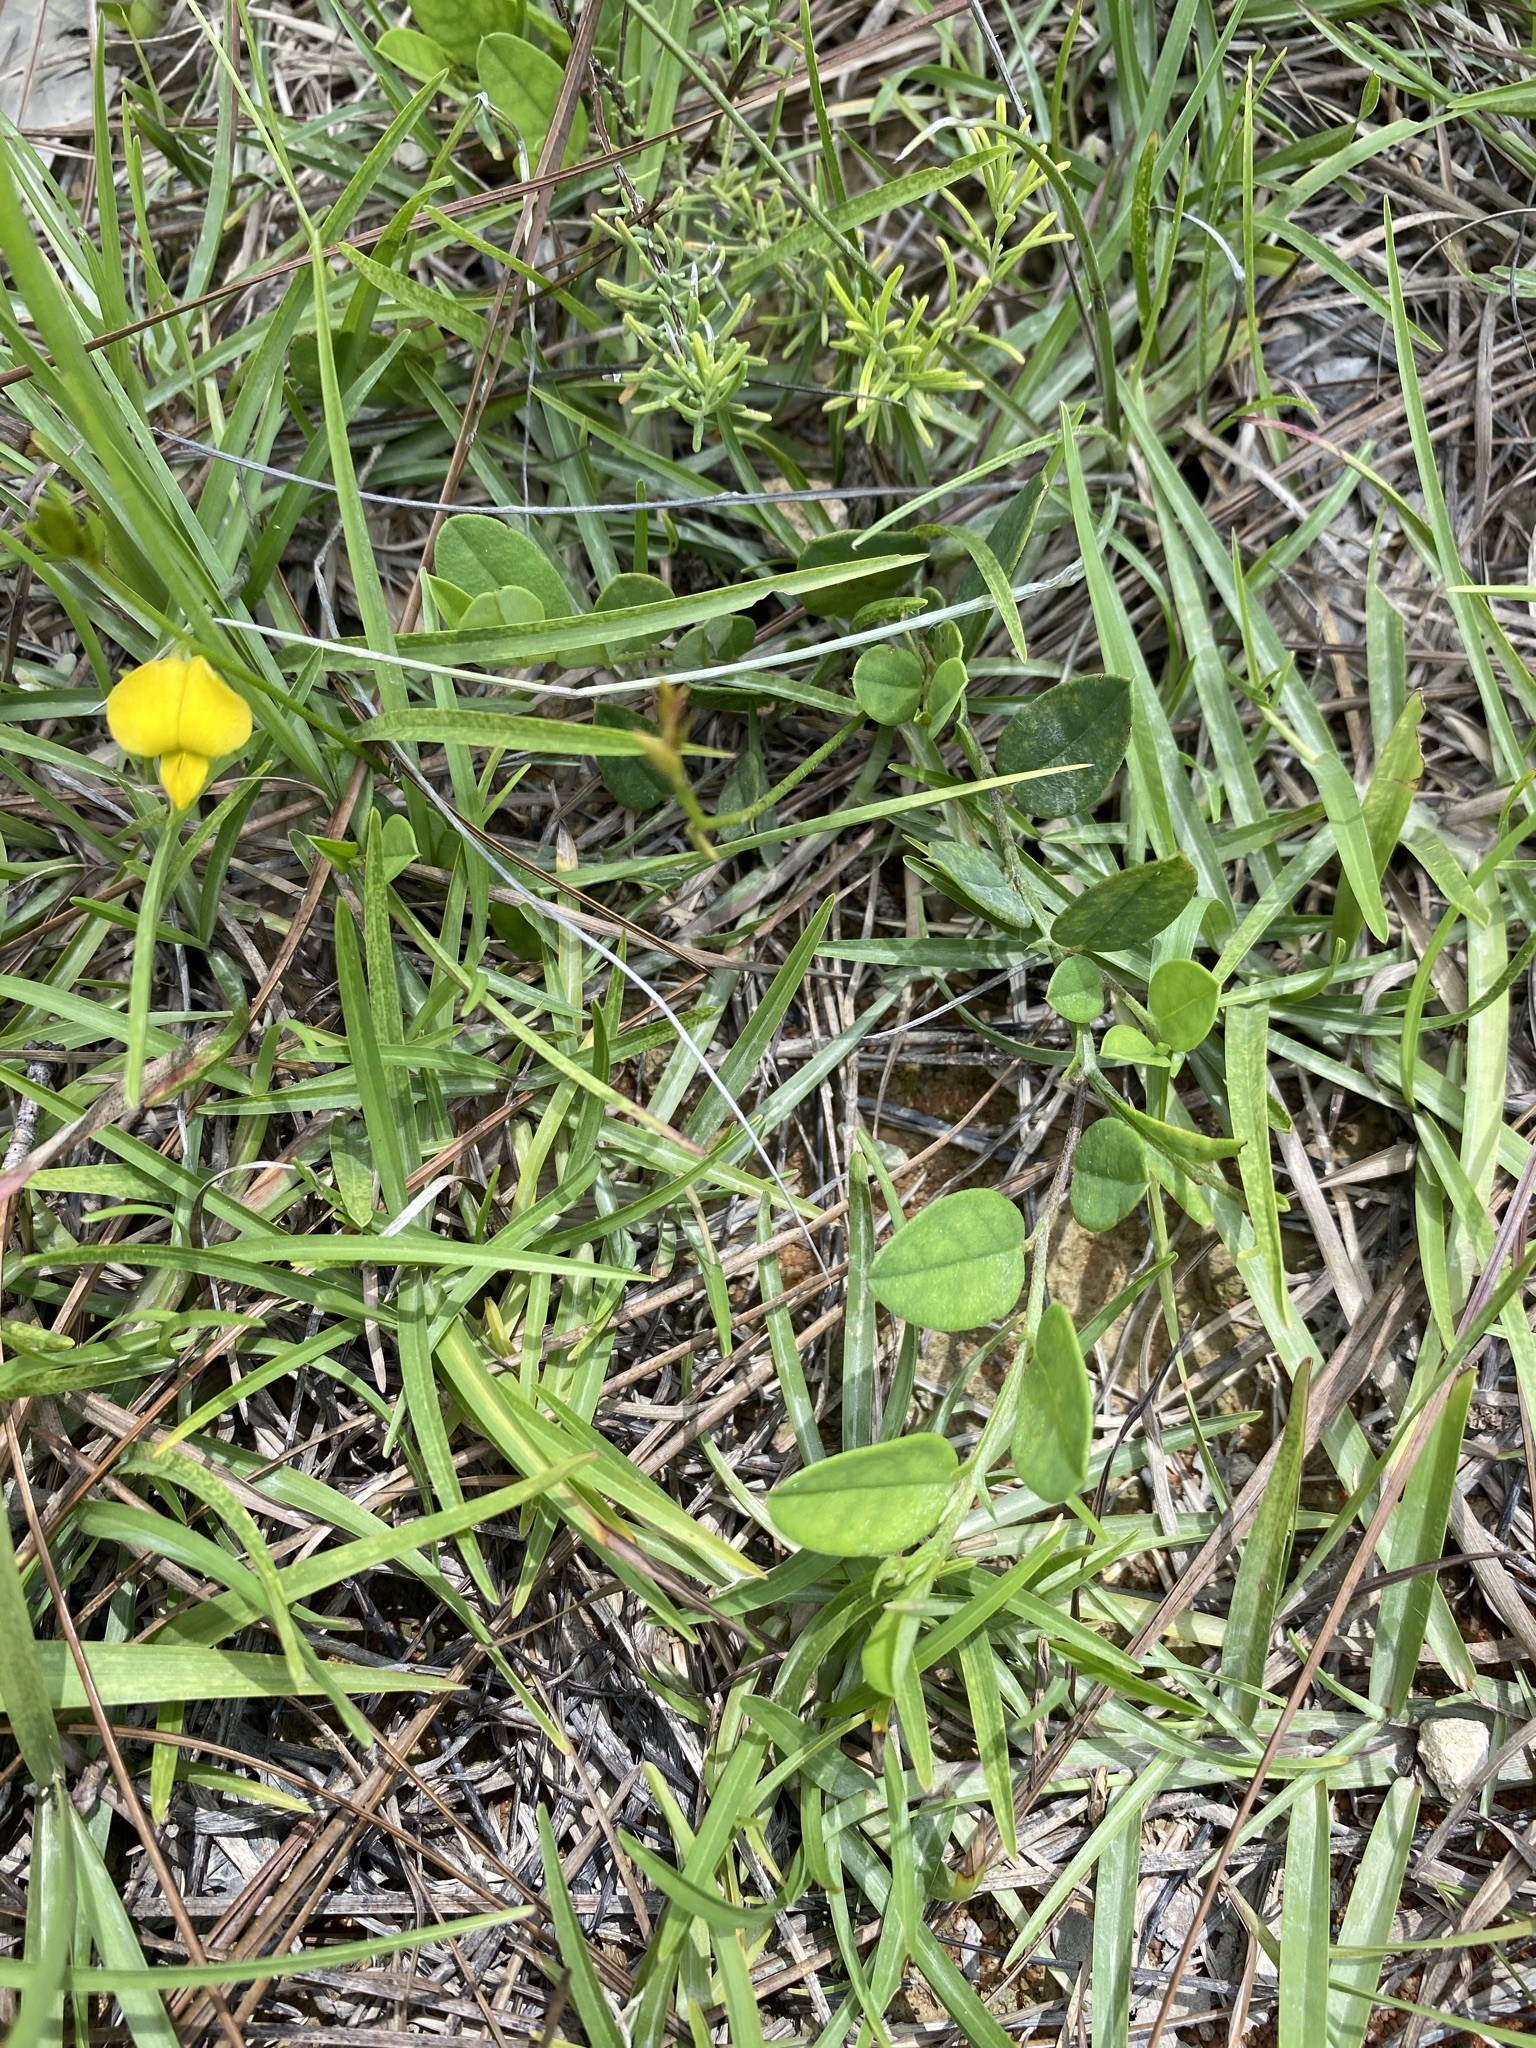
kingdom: Plantae
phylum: Tracheophyta
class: Magnoliopsida
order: Fabales
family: Fabaceae
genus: Crotalaria
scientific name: Crotalaria rotundifolia
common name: Prostrate rattlebox
